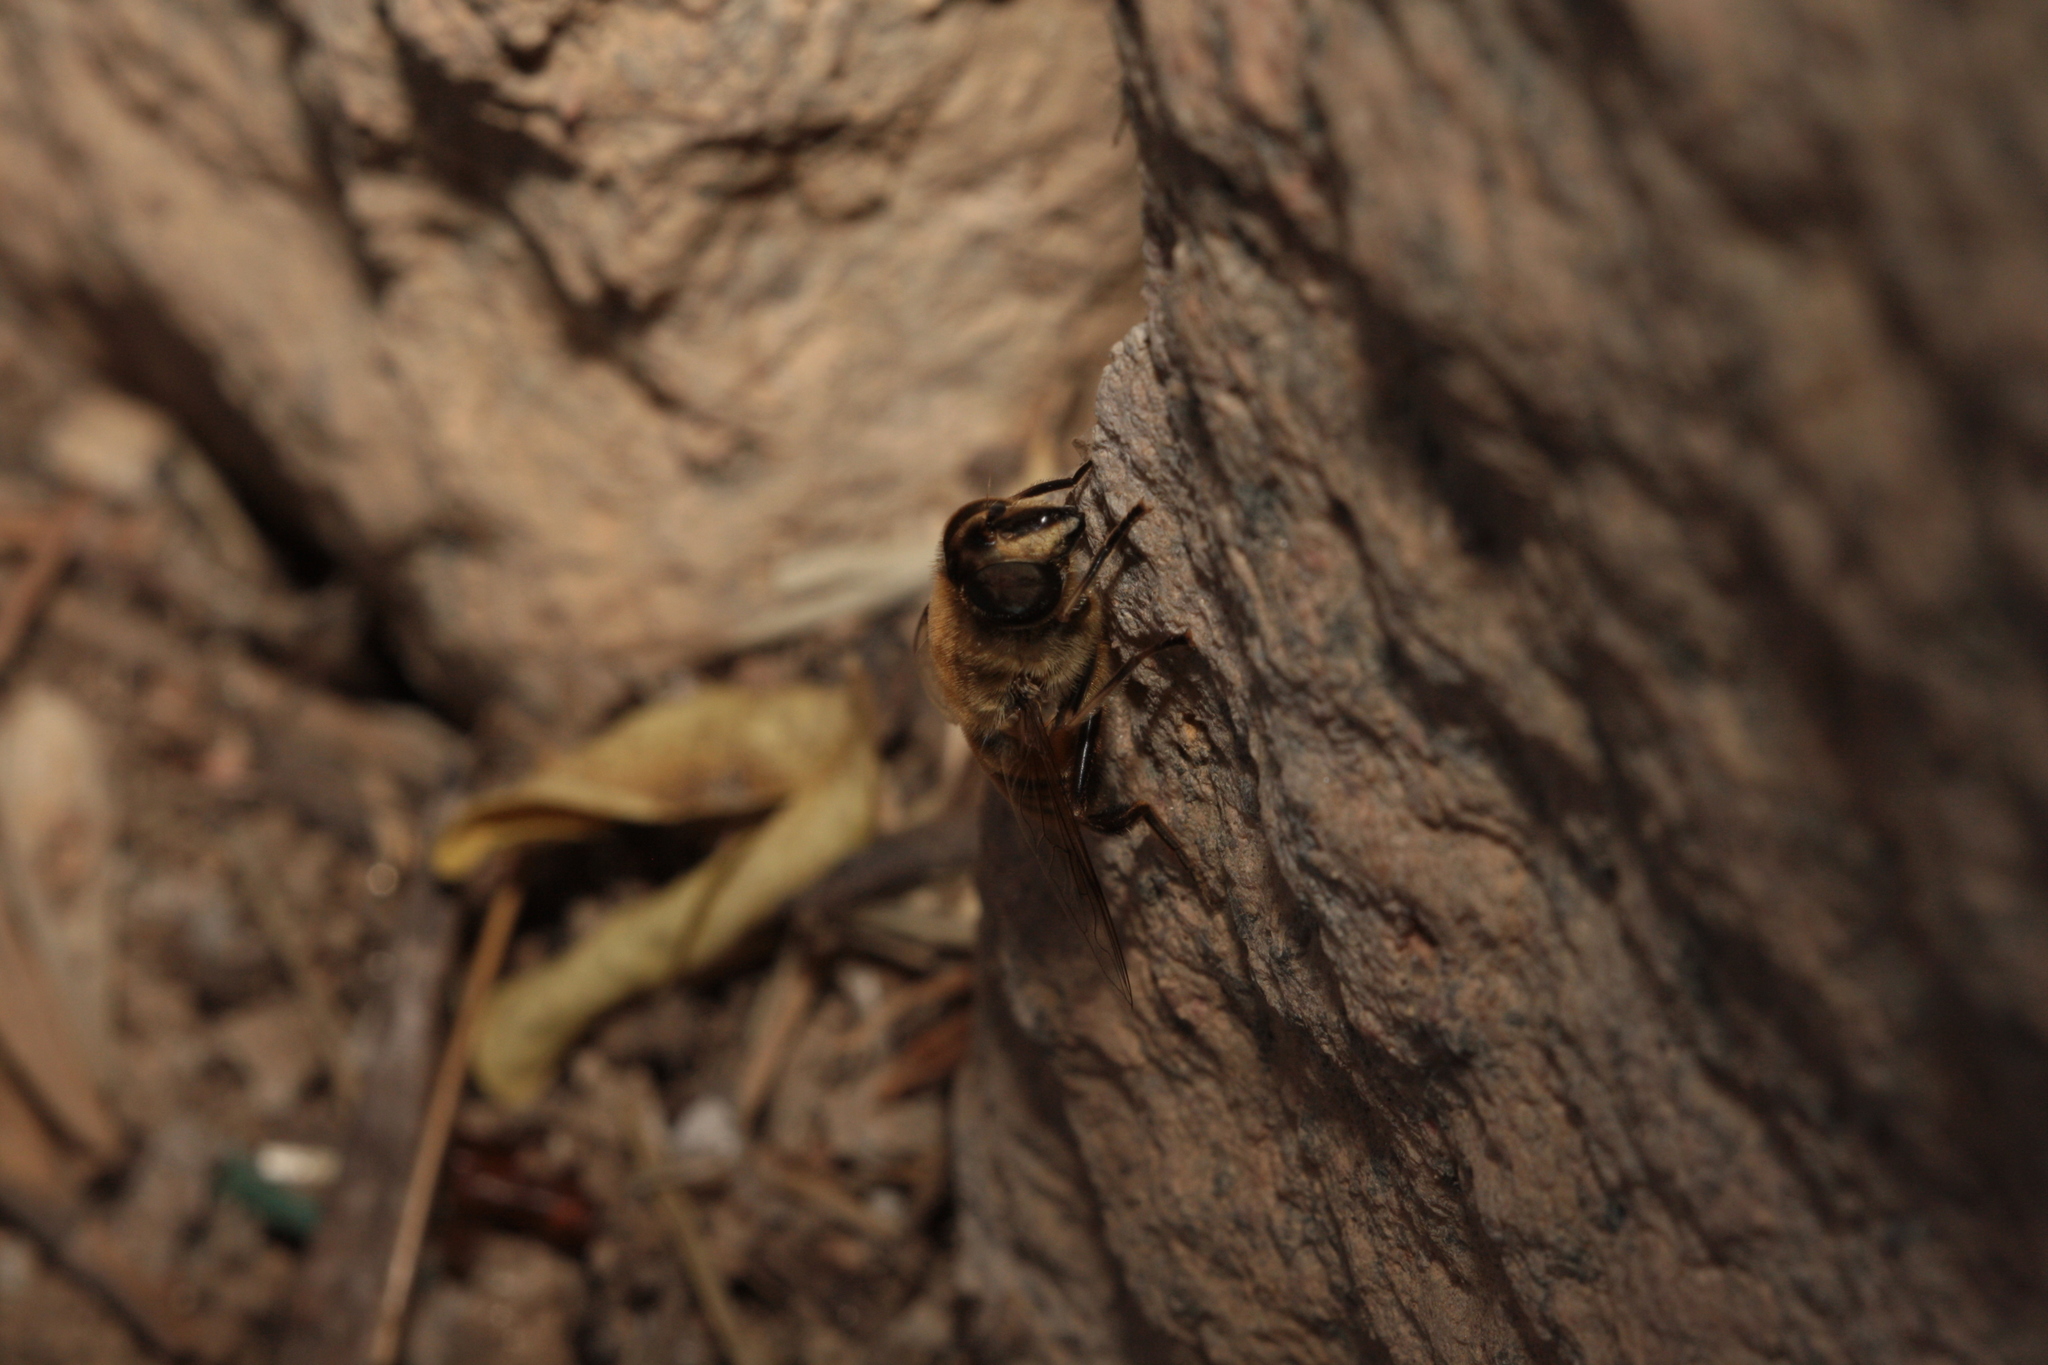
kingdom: Animalia
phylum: Arthropoda
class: Insecta
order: Diptera
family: Syrphidae
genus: Eristalis
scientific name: Eristalis tenax
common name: Drone fly
